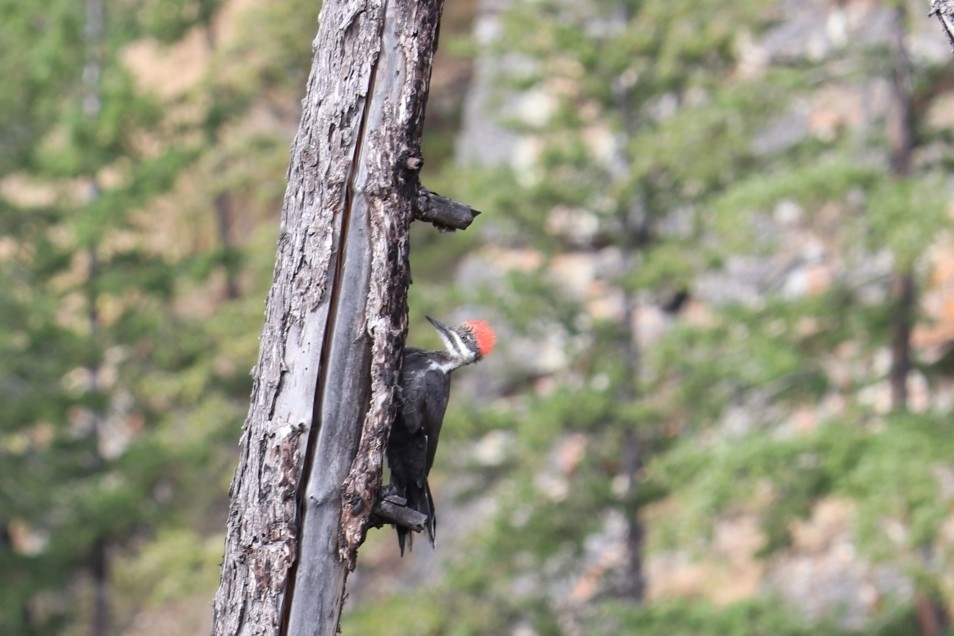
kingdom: Animalia
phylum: Chordata
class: Aves
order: Piciformes
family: Picidae
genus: Dryocopus
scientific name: Dryocopus pileatus
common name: Pileated woodpecker
